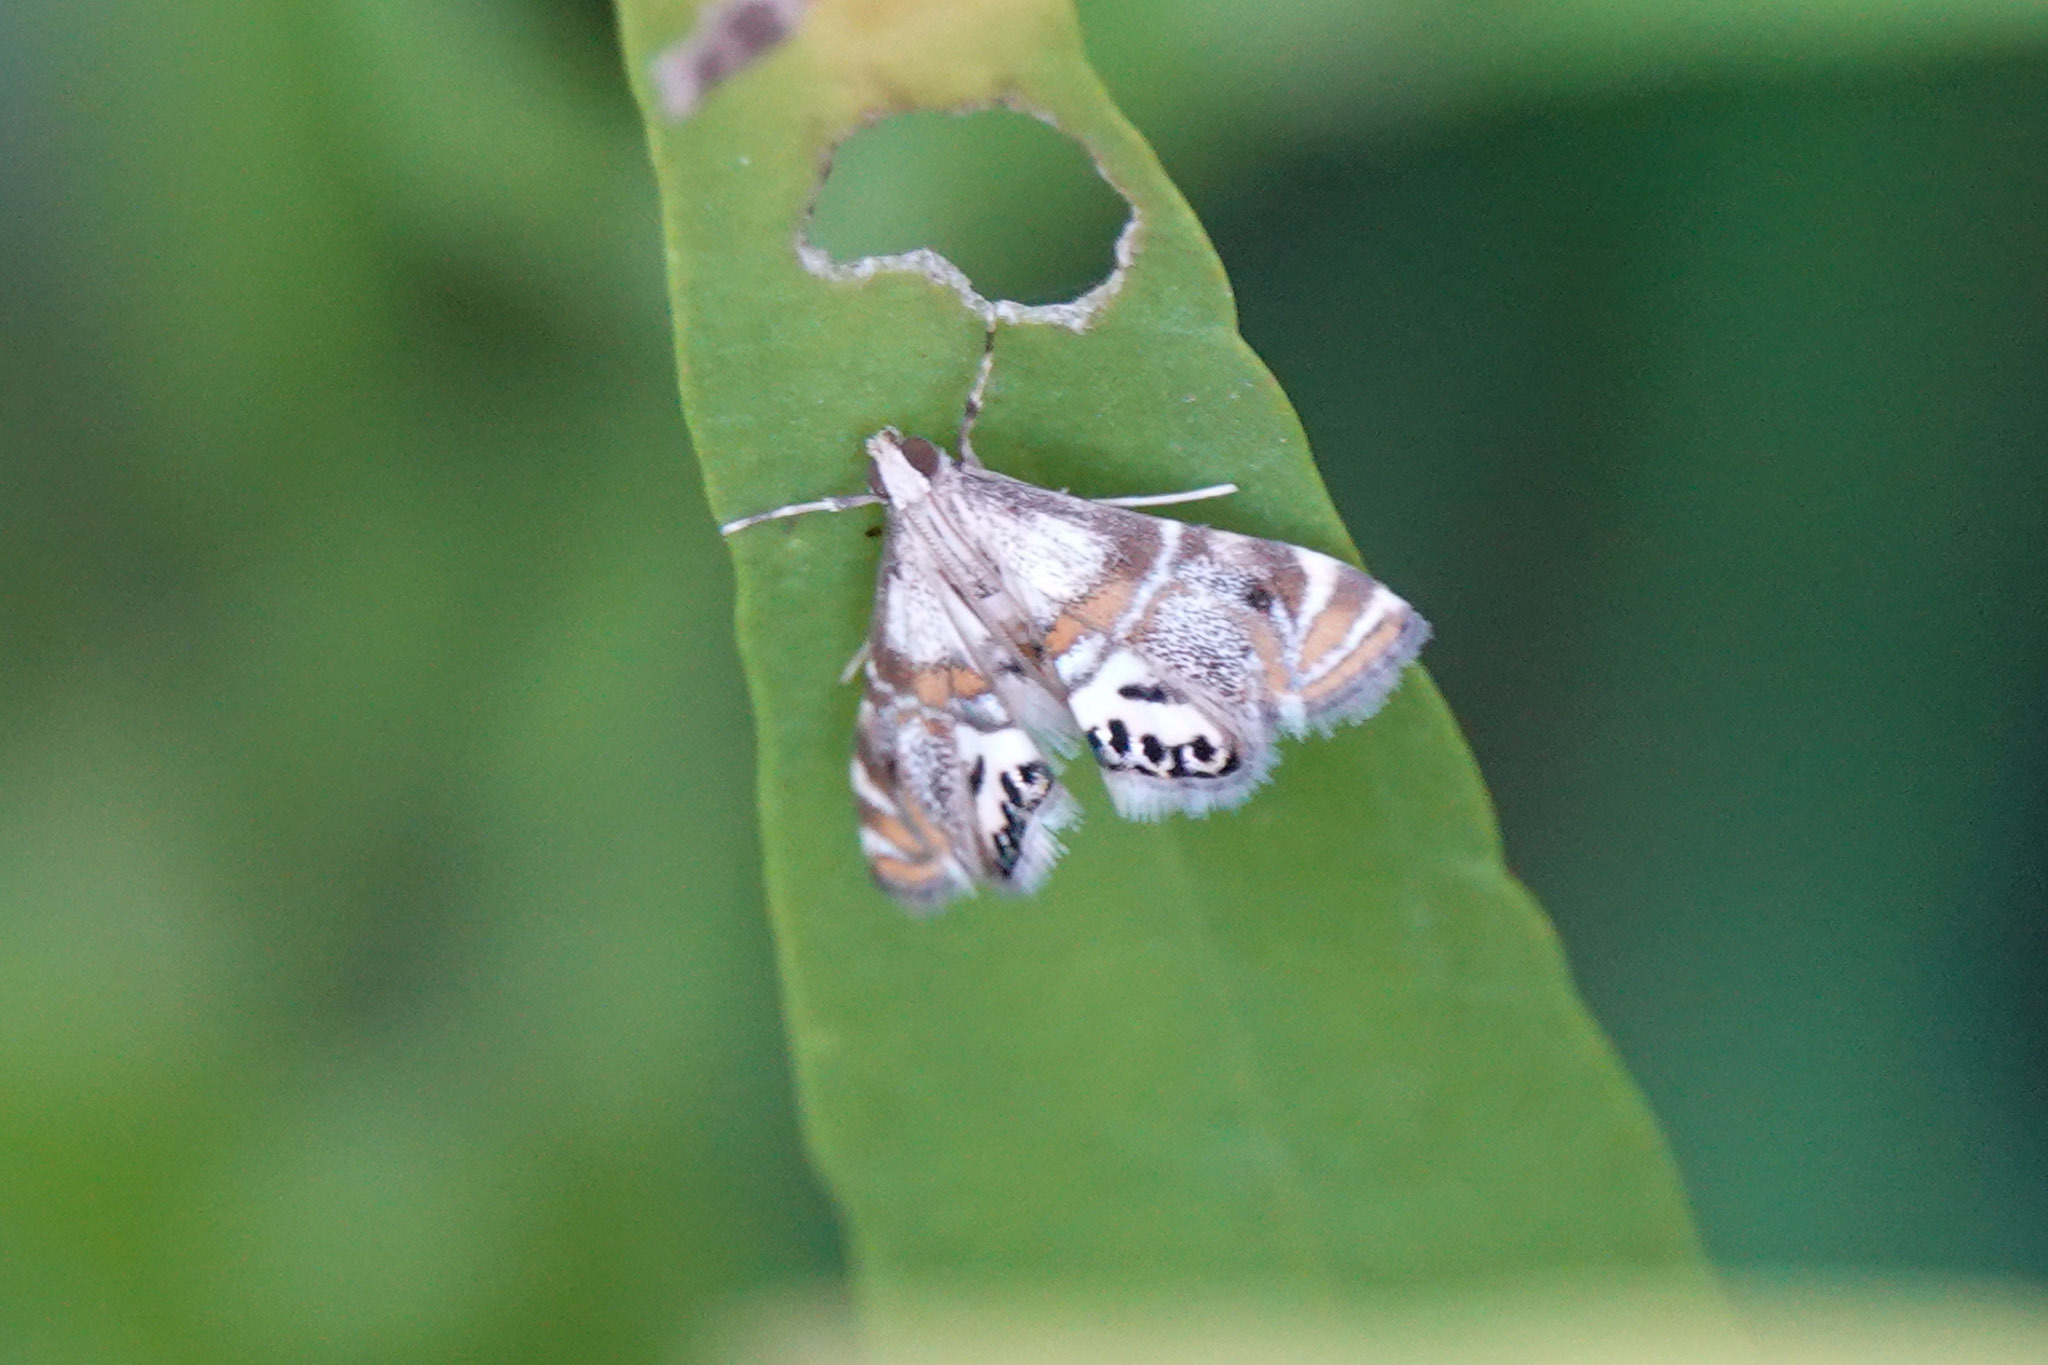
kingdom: Animalia
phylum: Arthropoda
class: Insecta
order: Lepidoptera
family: Crambidae
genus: Petrophila
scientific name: Petrophila bifascialis
